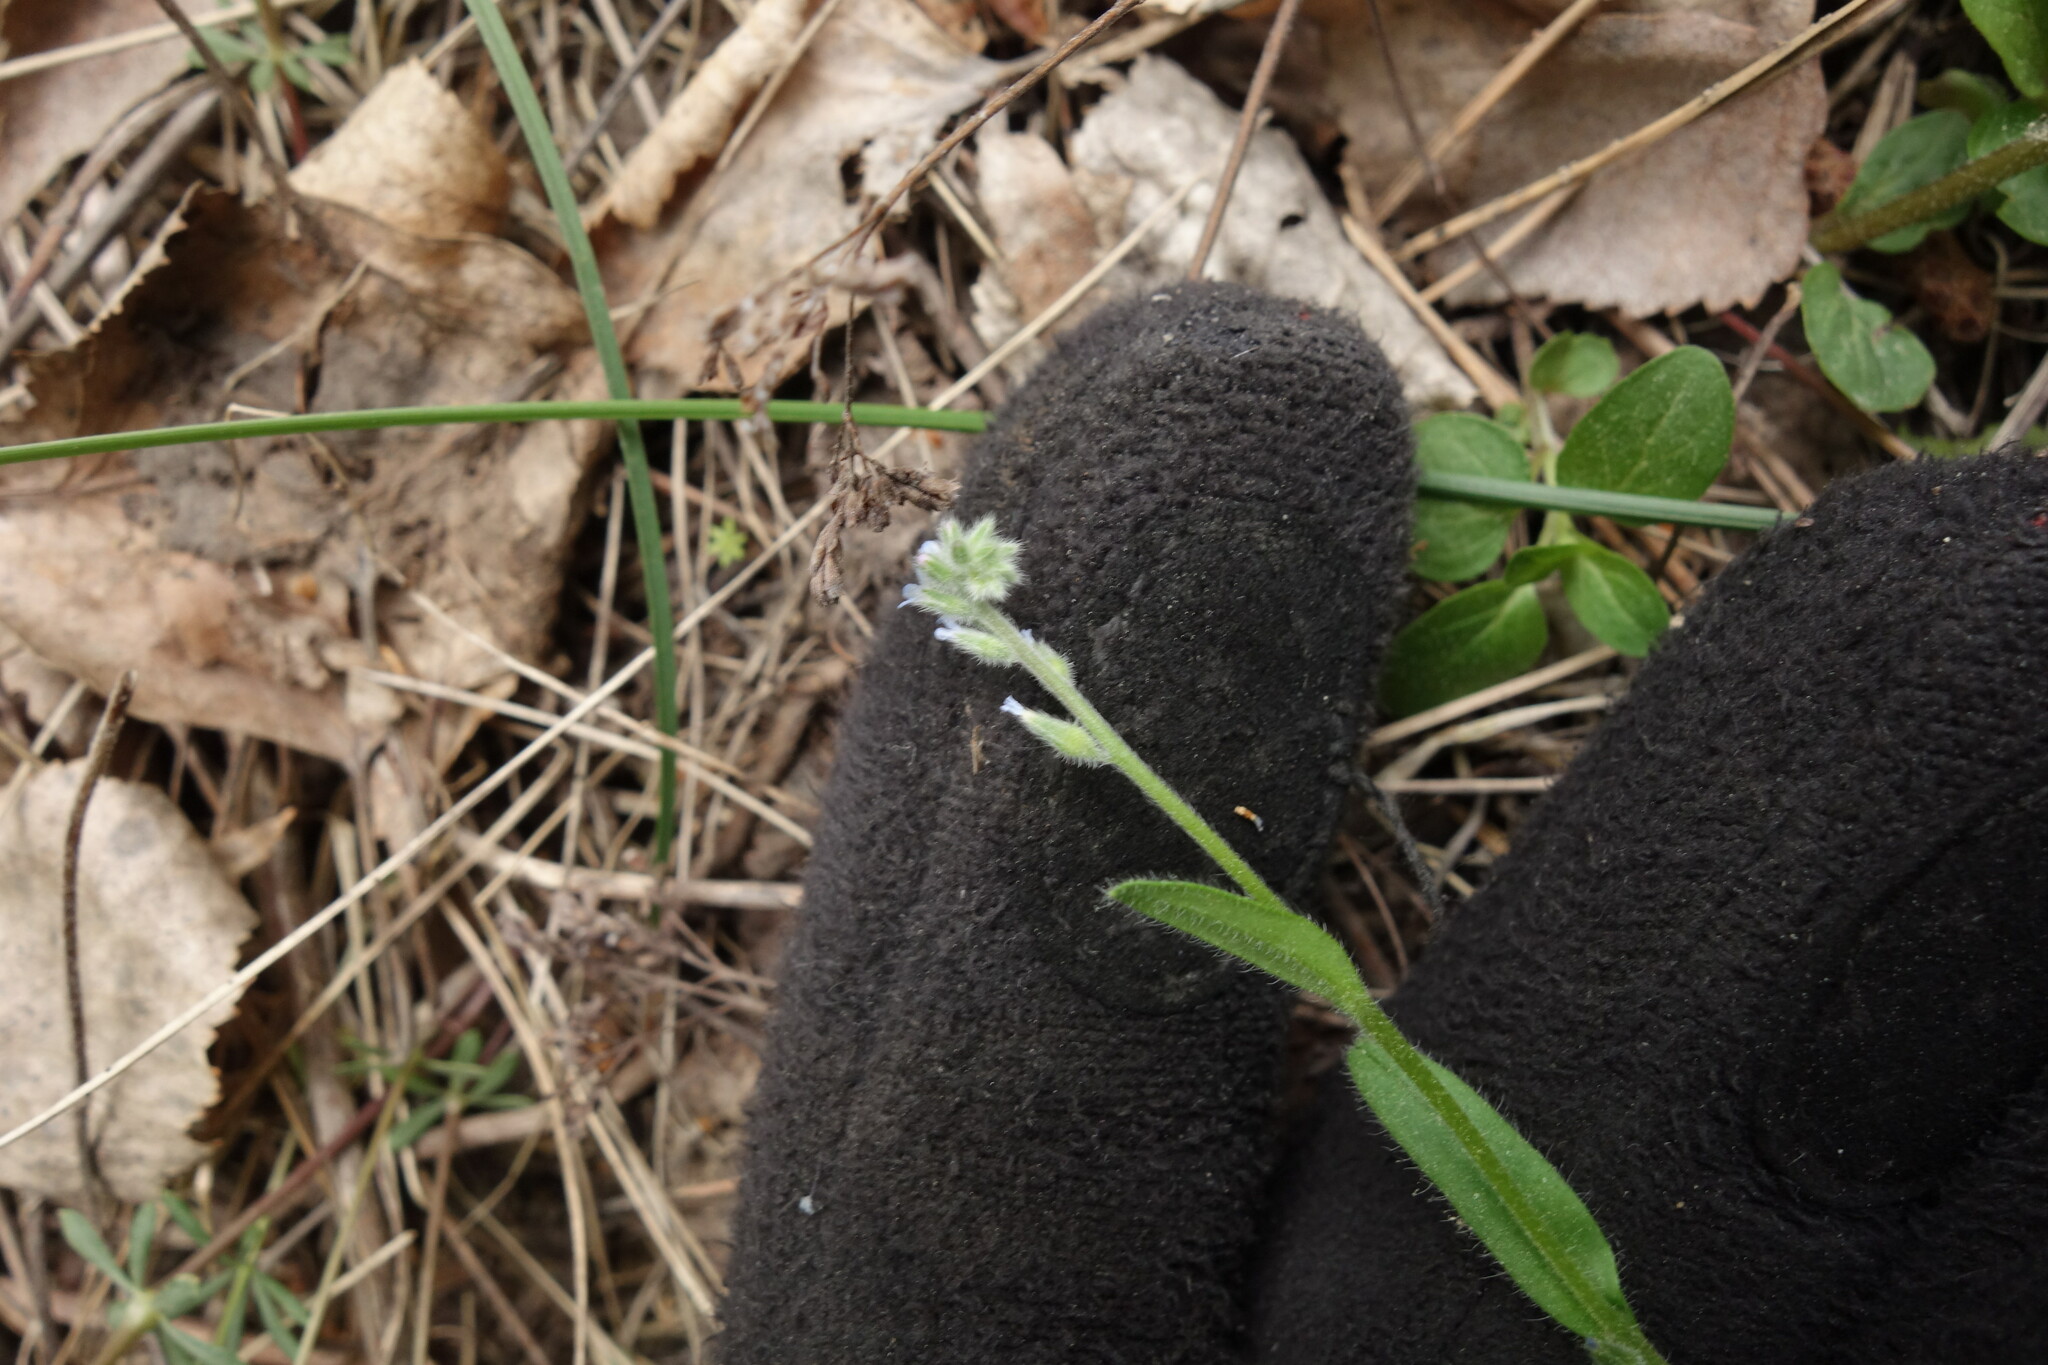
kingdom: Plantae
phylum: Tracheophyta
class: Magnoliopsida
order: Boraginales
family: Boraginaceae
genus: Myosotis
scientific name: Myosotis stricta
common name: Strict forget-me-not
